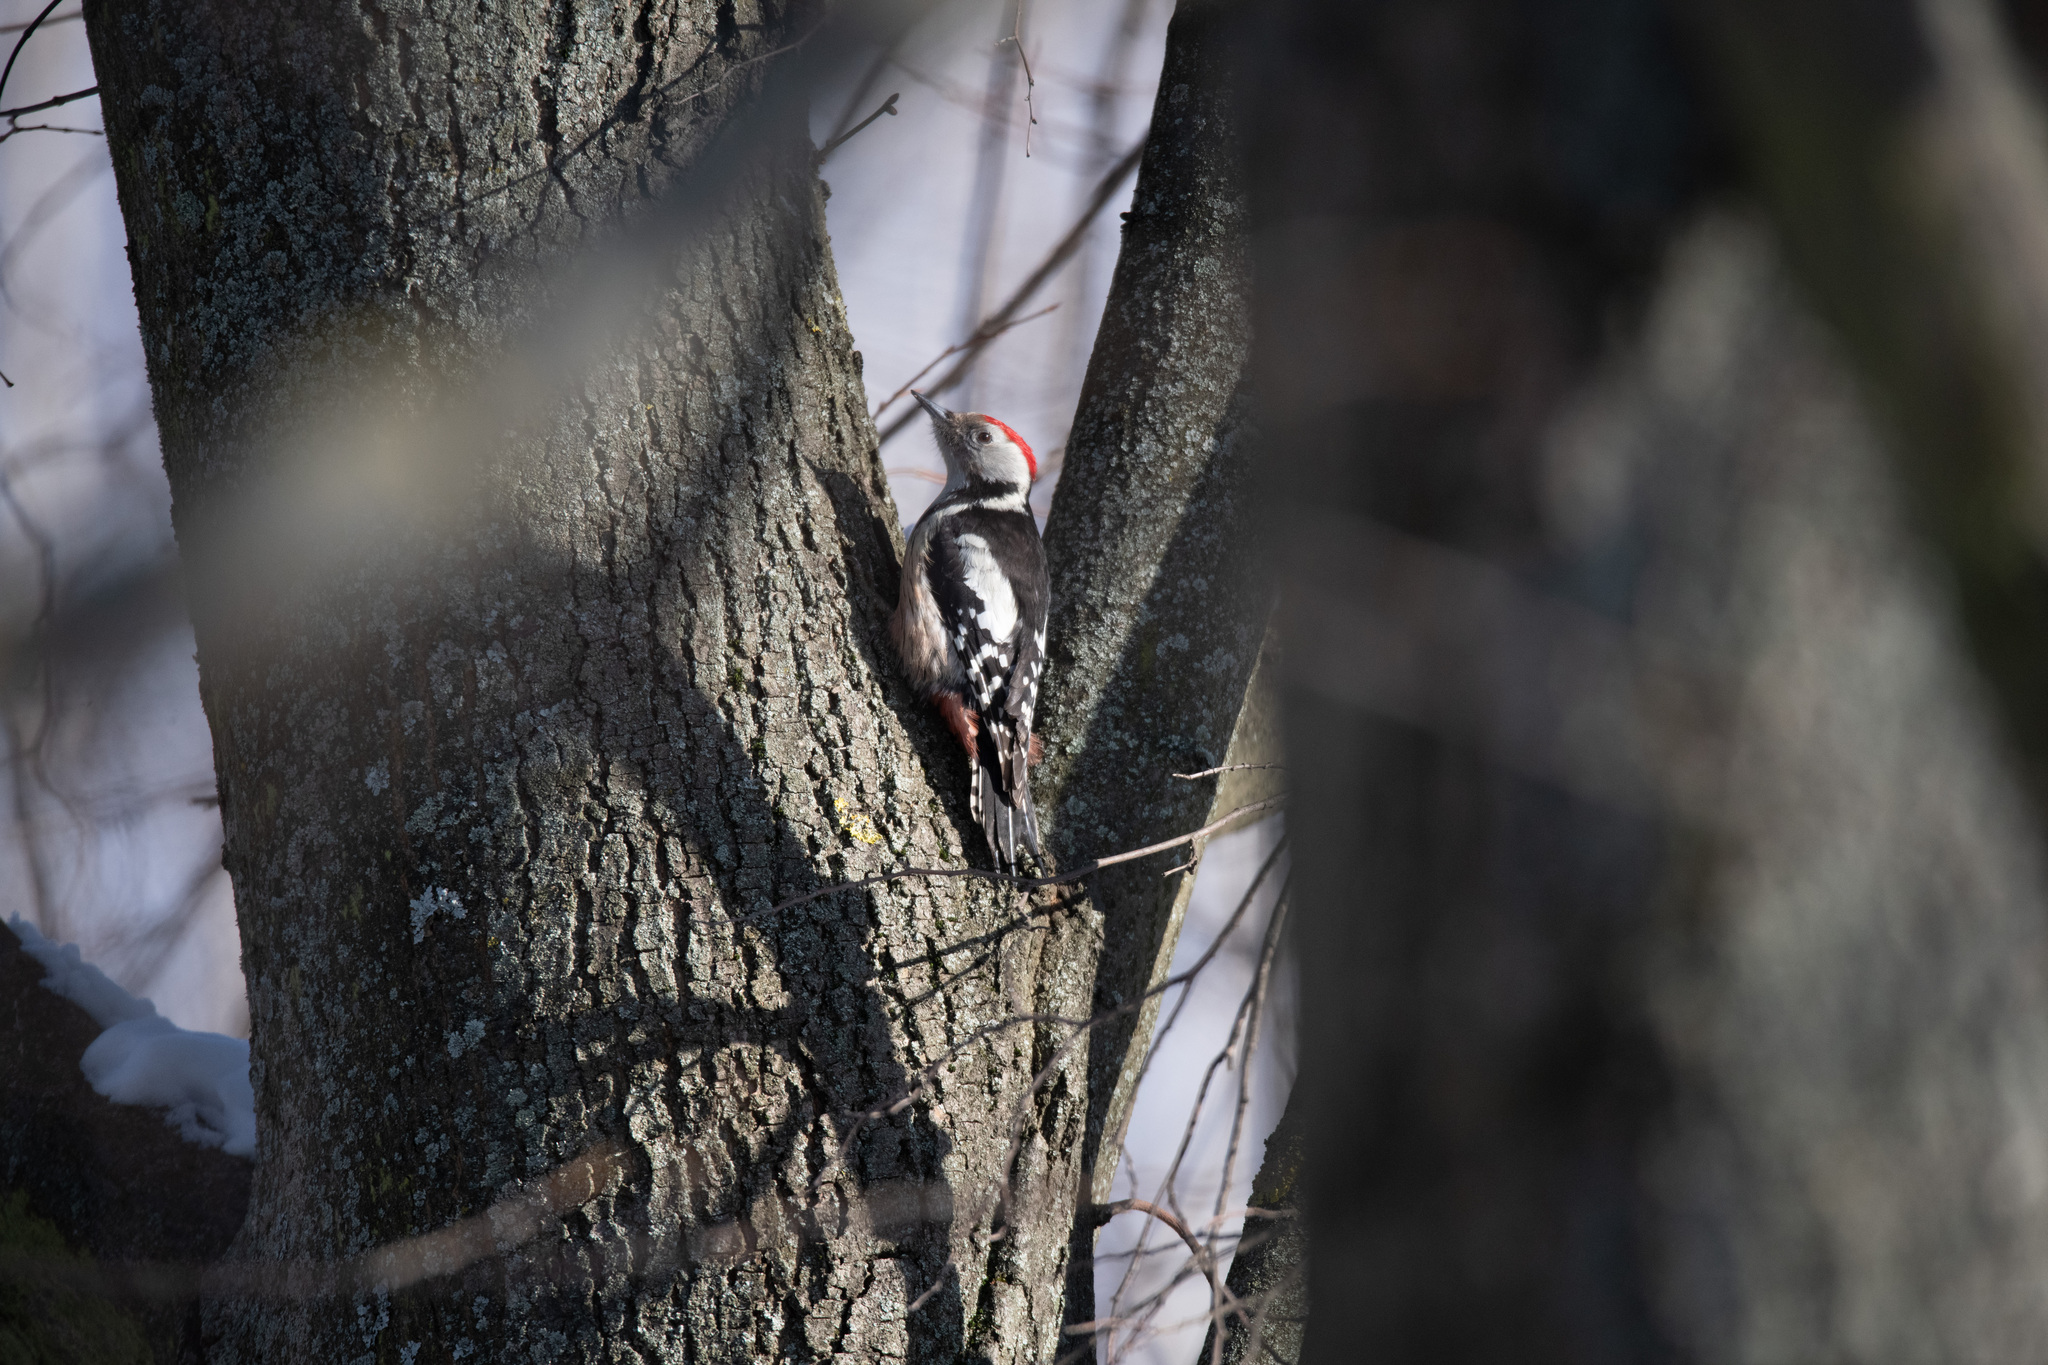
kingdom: Animalia
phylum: Chordata
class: Aves
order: Piciformes
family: Picidae
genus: Dendrocoptes
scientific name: Dendrocoptes medius
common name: Middle spotted woodpecker
